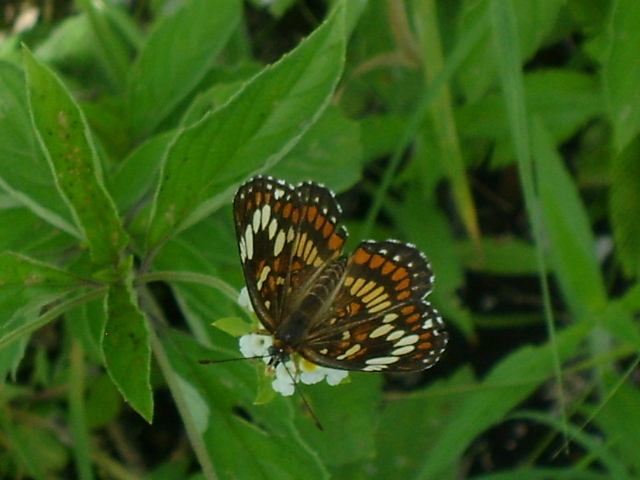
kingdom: Animalia
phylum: Arthropoda
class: Insecta
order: Lepidoptera
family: Nymphalidae
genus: Thessalia
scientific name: Thessalia theona
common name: Nymphalid moth
